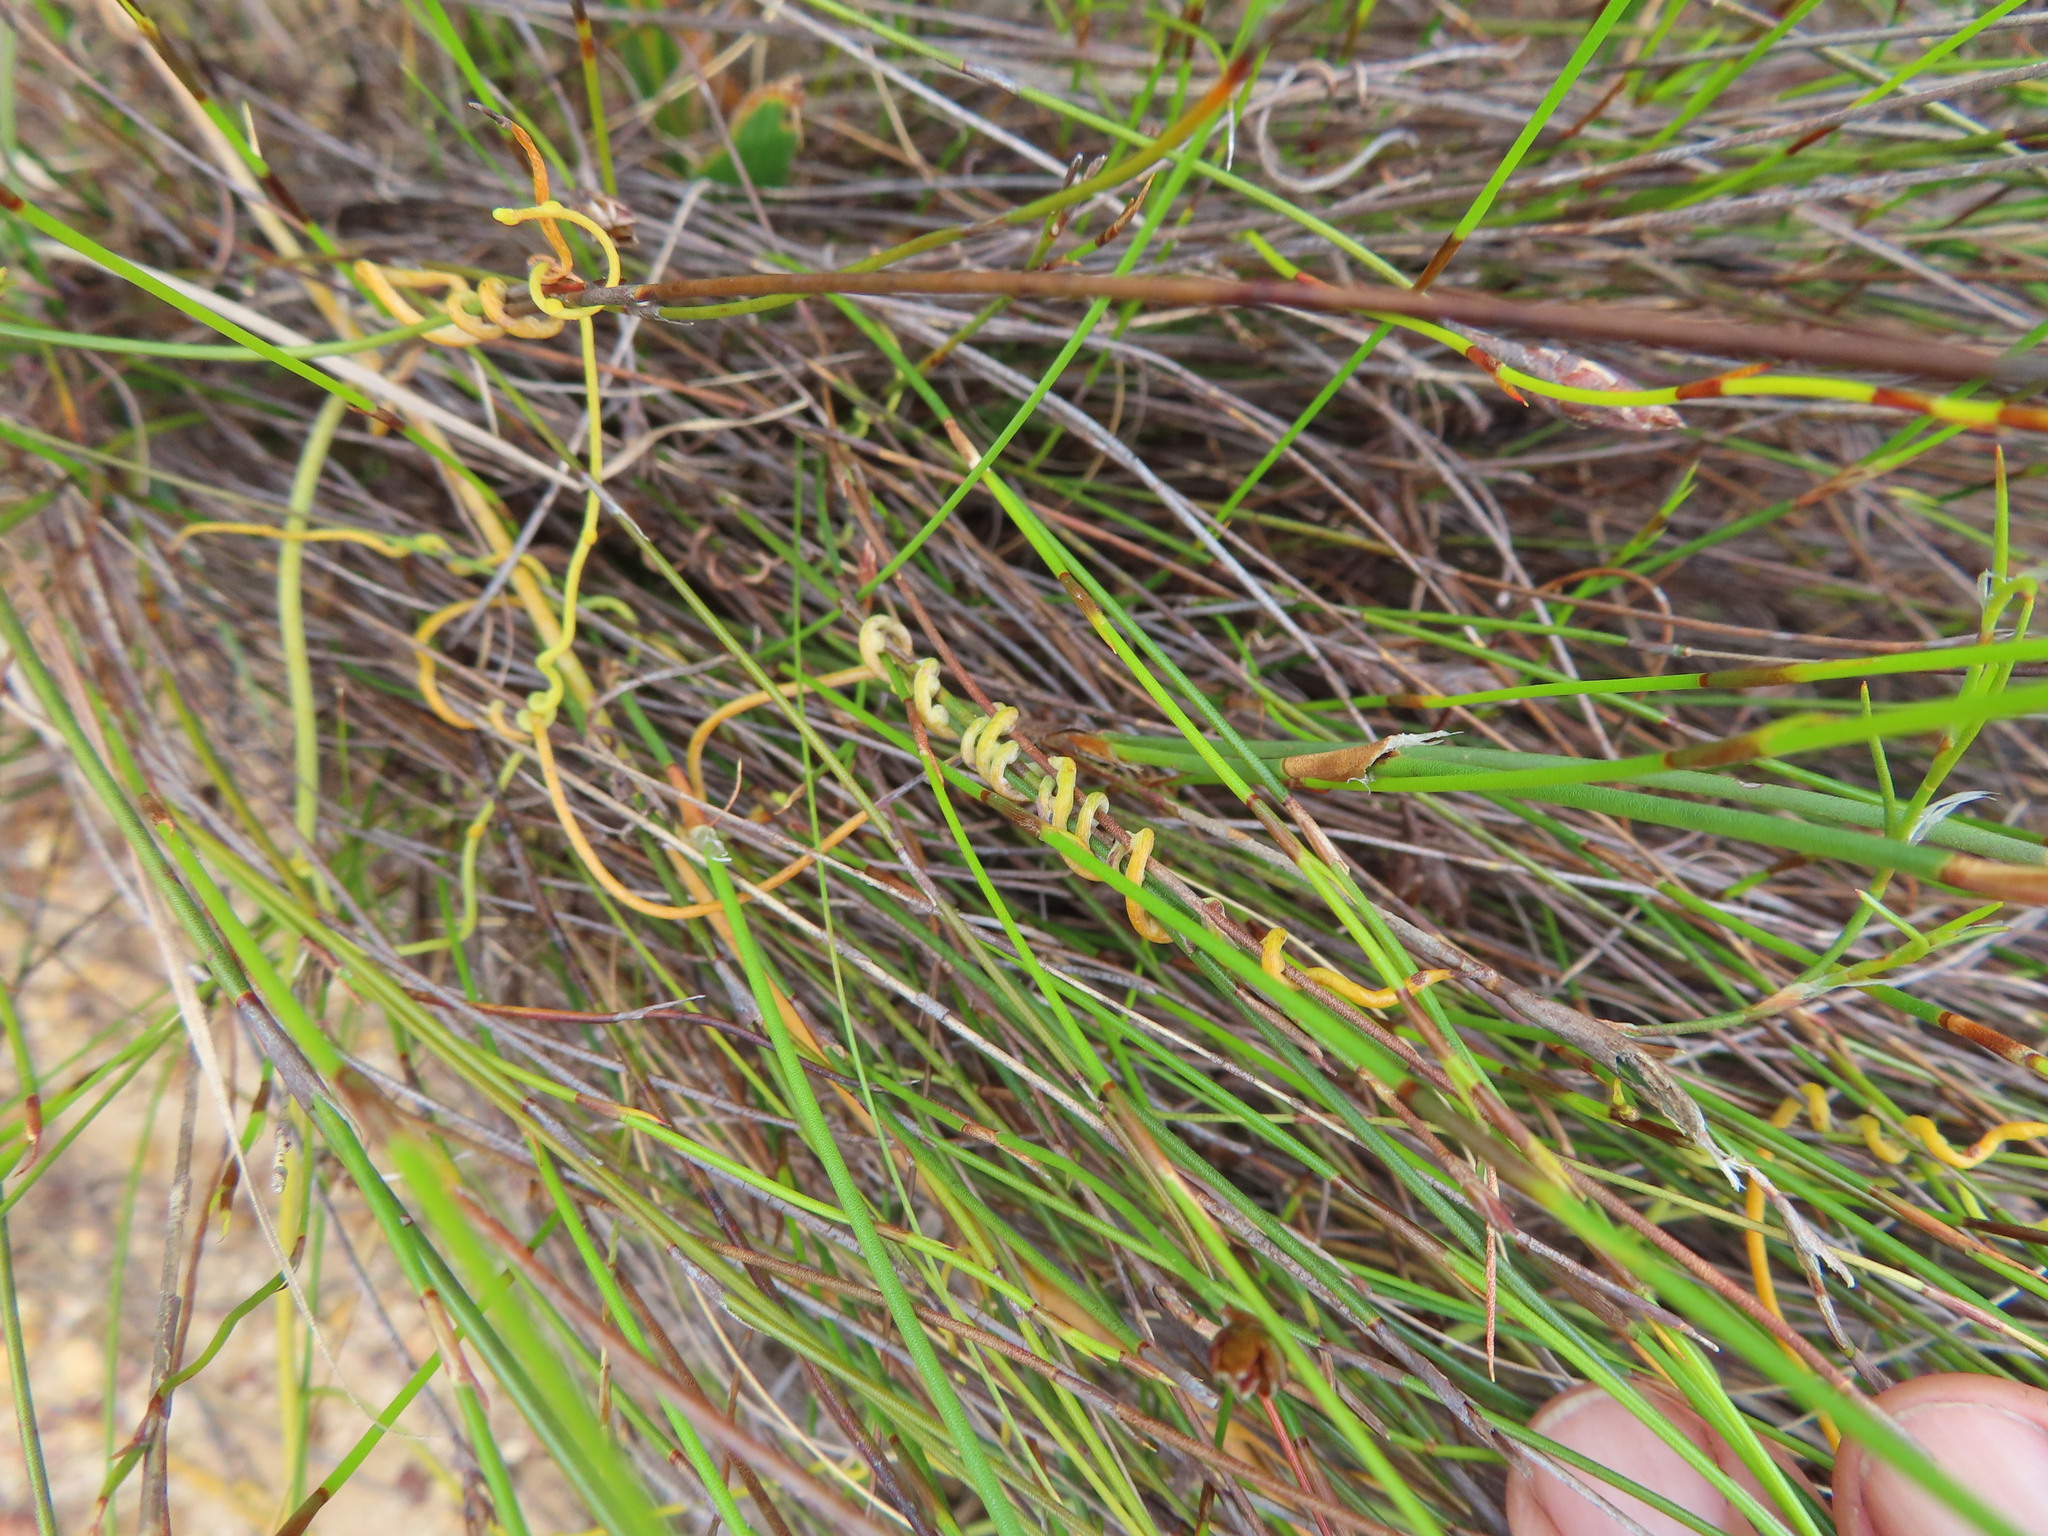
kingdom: Plantae
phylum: Tracheophyta
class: Magnoliopsida
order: Laurales
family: Lauraceae
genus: Cassytha
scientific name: Cassytha ciliolata
